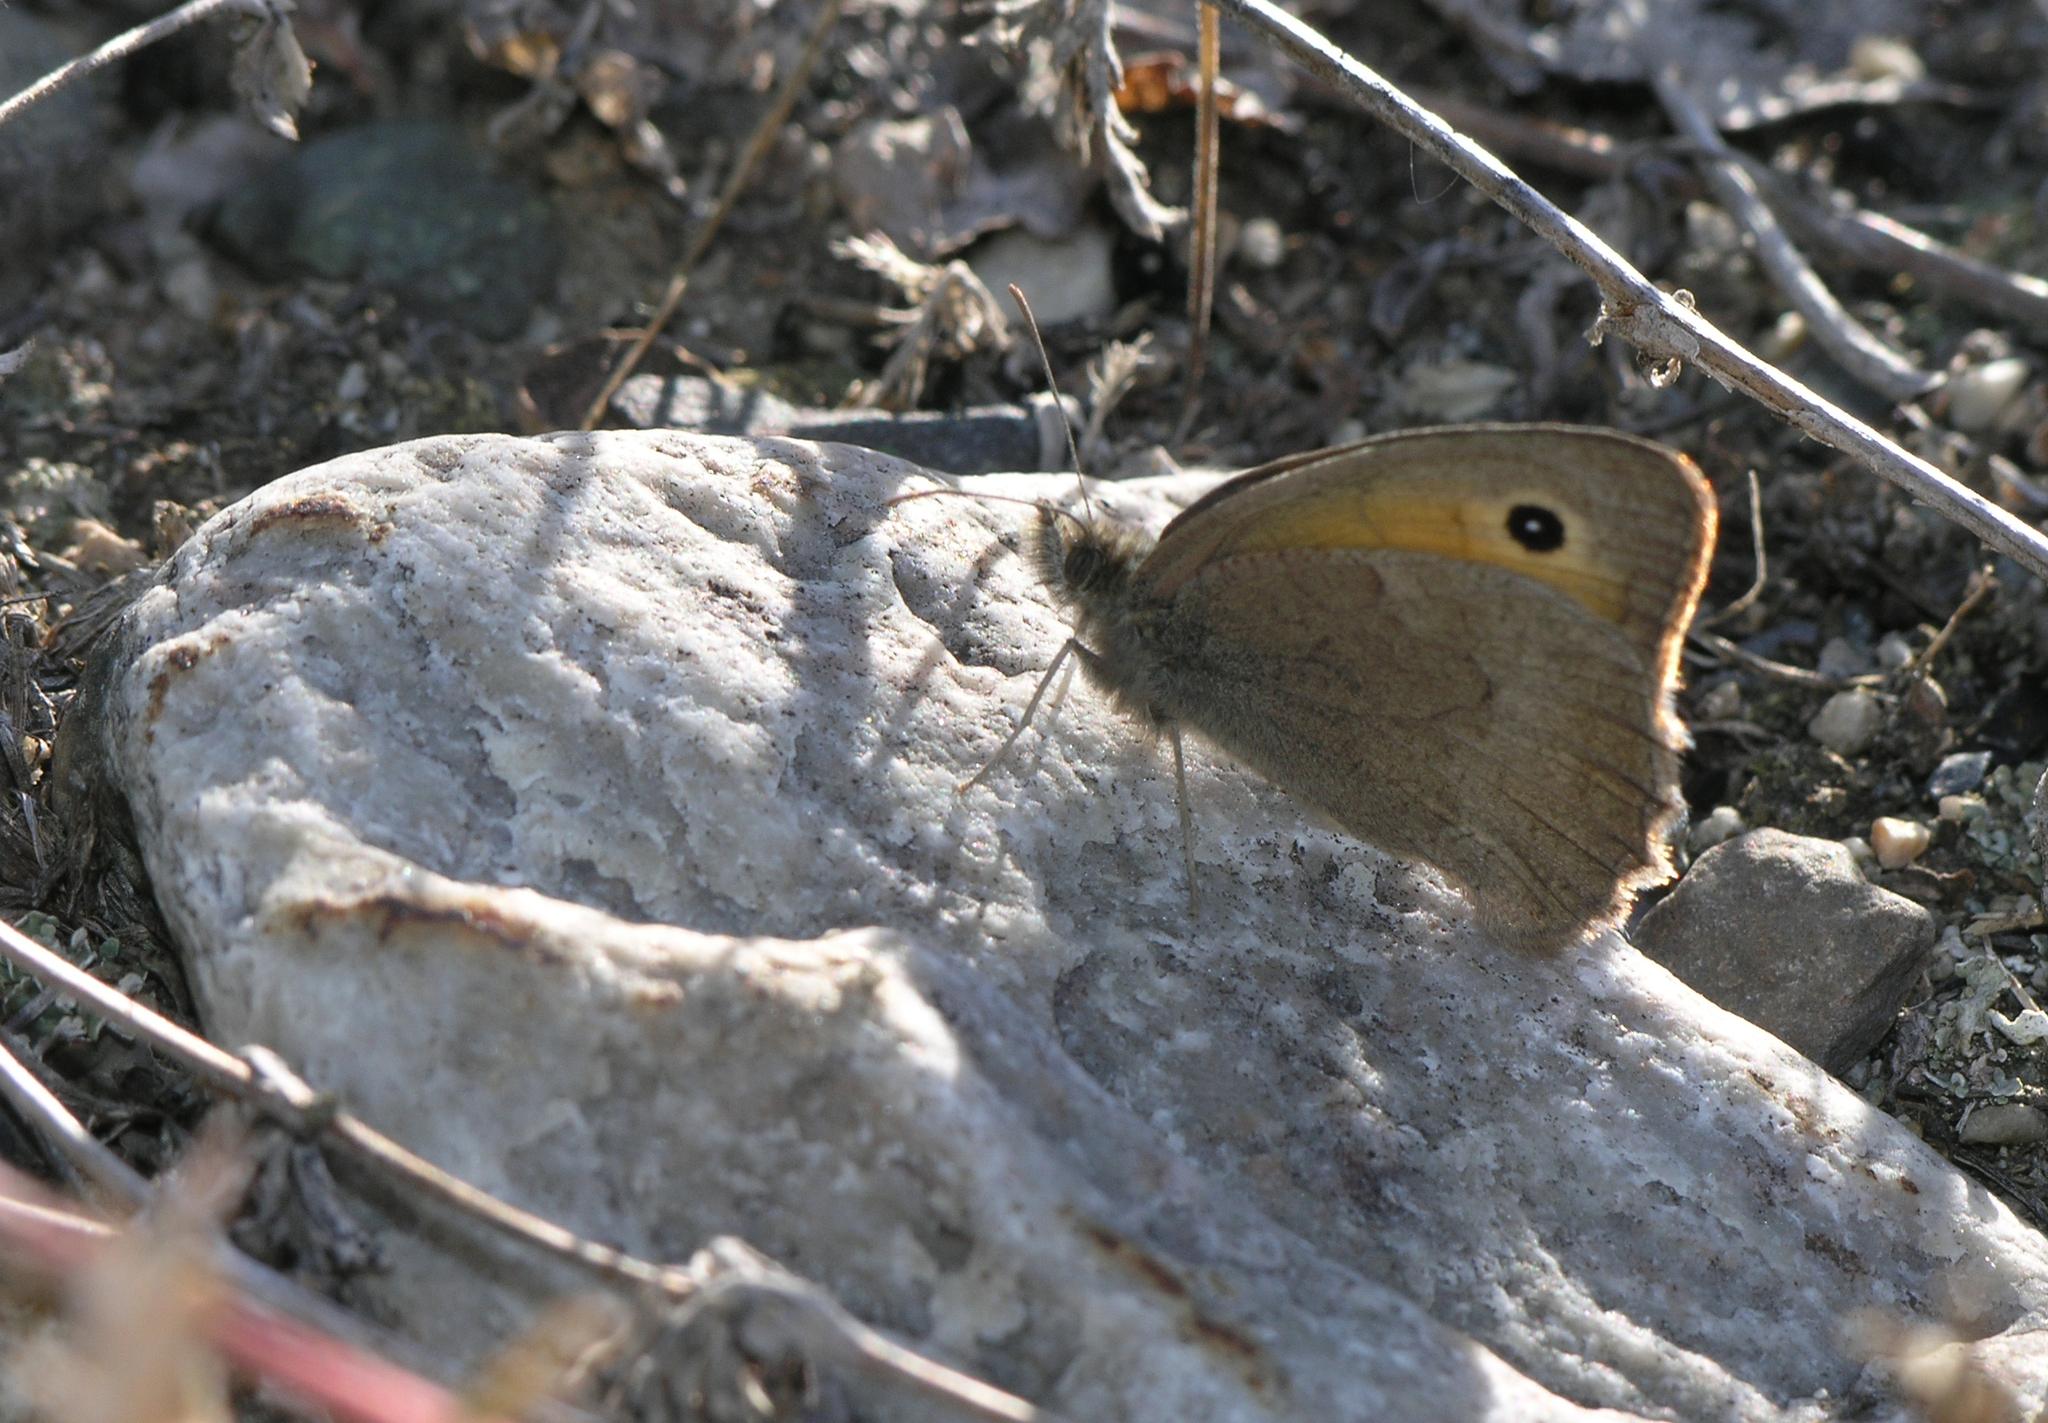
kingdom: Animalia
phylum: Arthropoda
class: Insecta
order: Lepidoptera
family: Nymphalidae
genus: Hyponephele
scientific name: Hyponephele lycaon
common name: Dusky meadow brown
